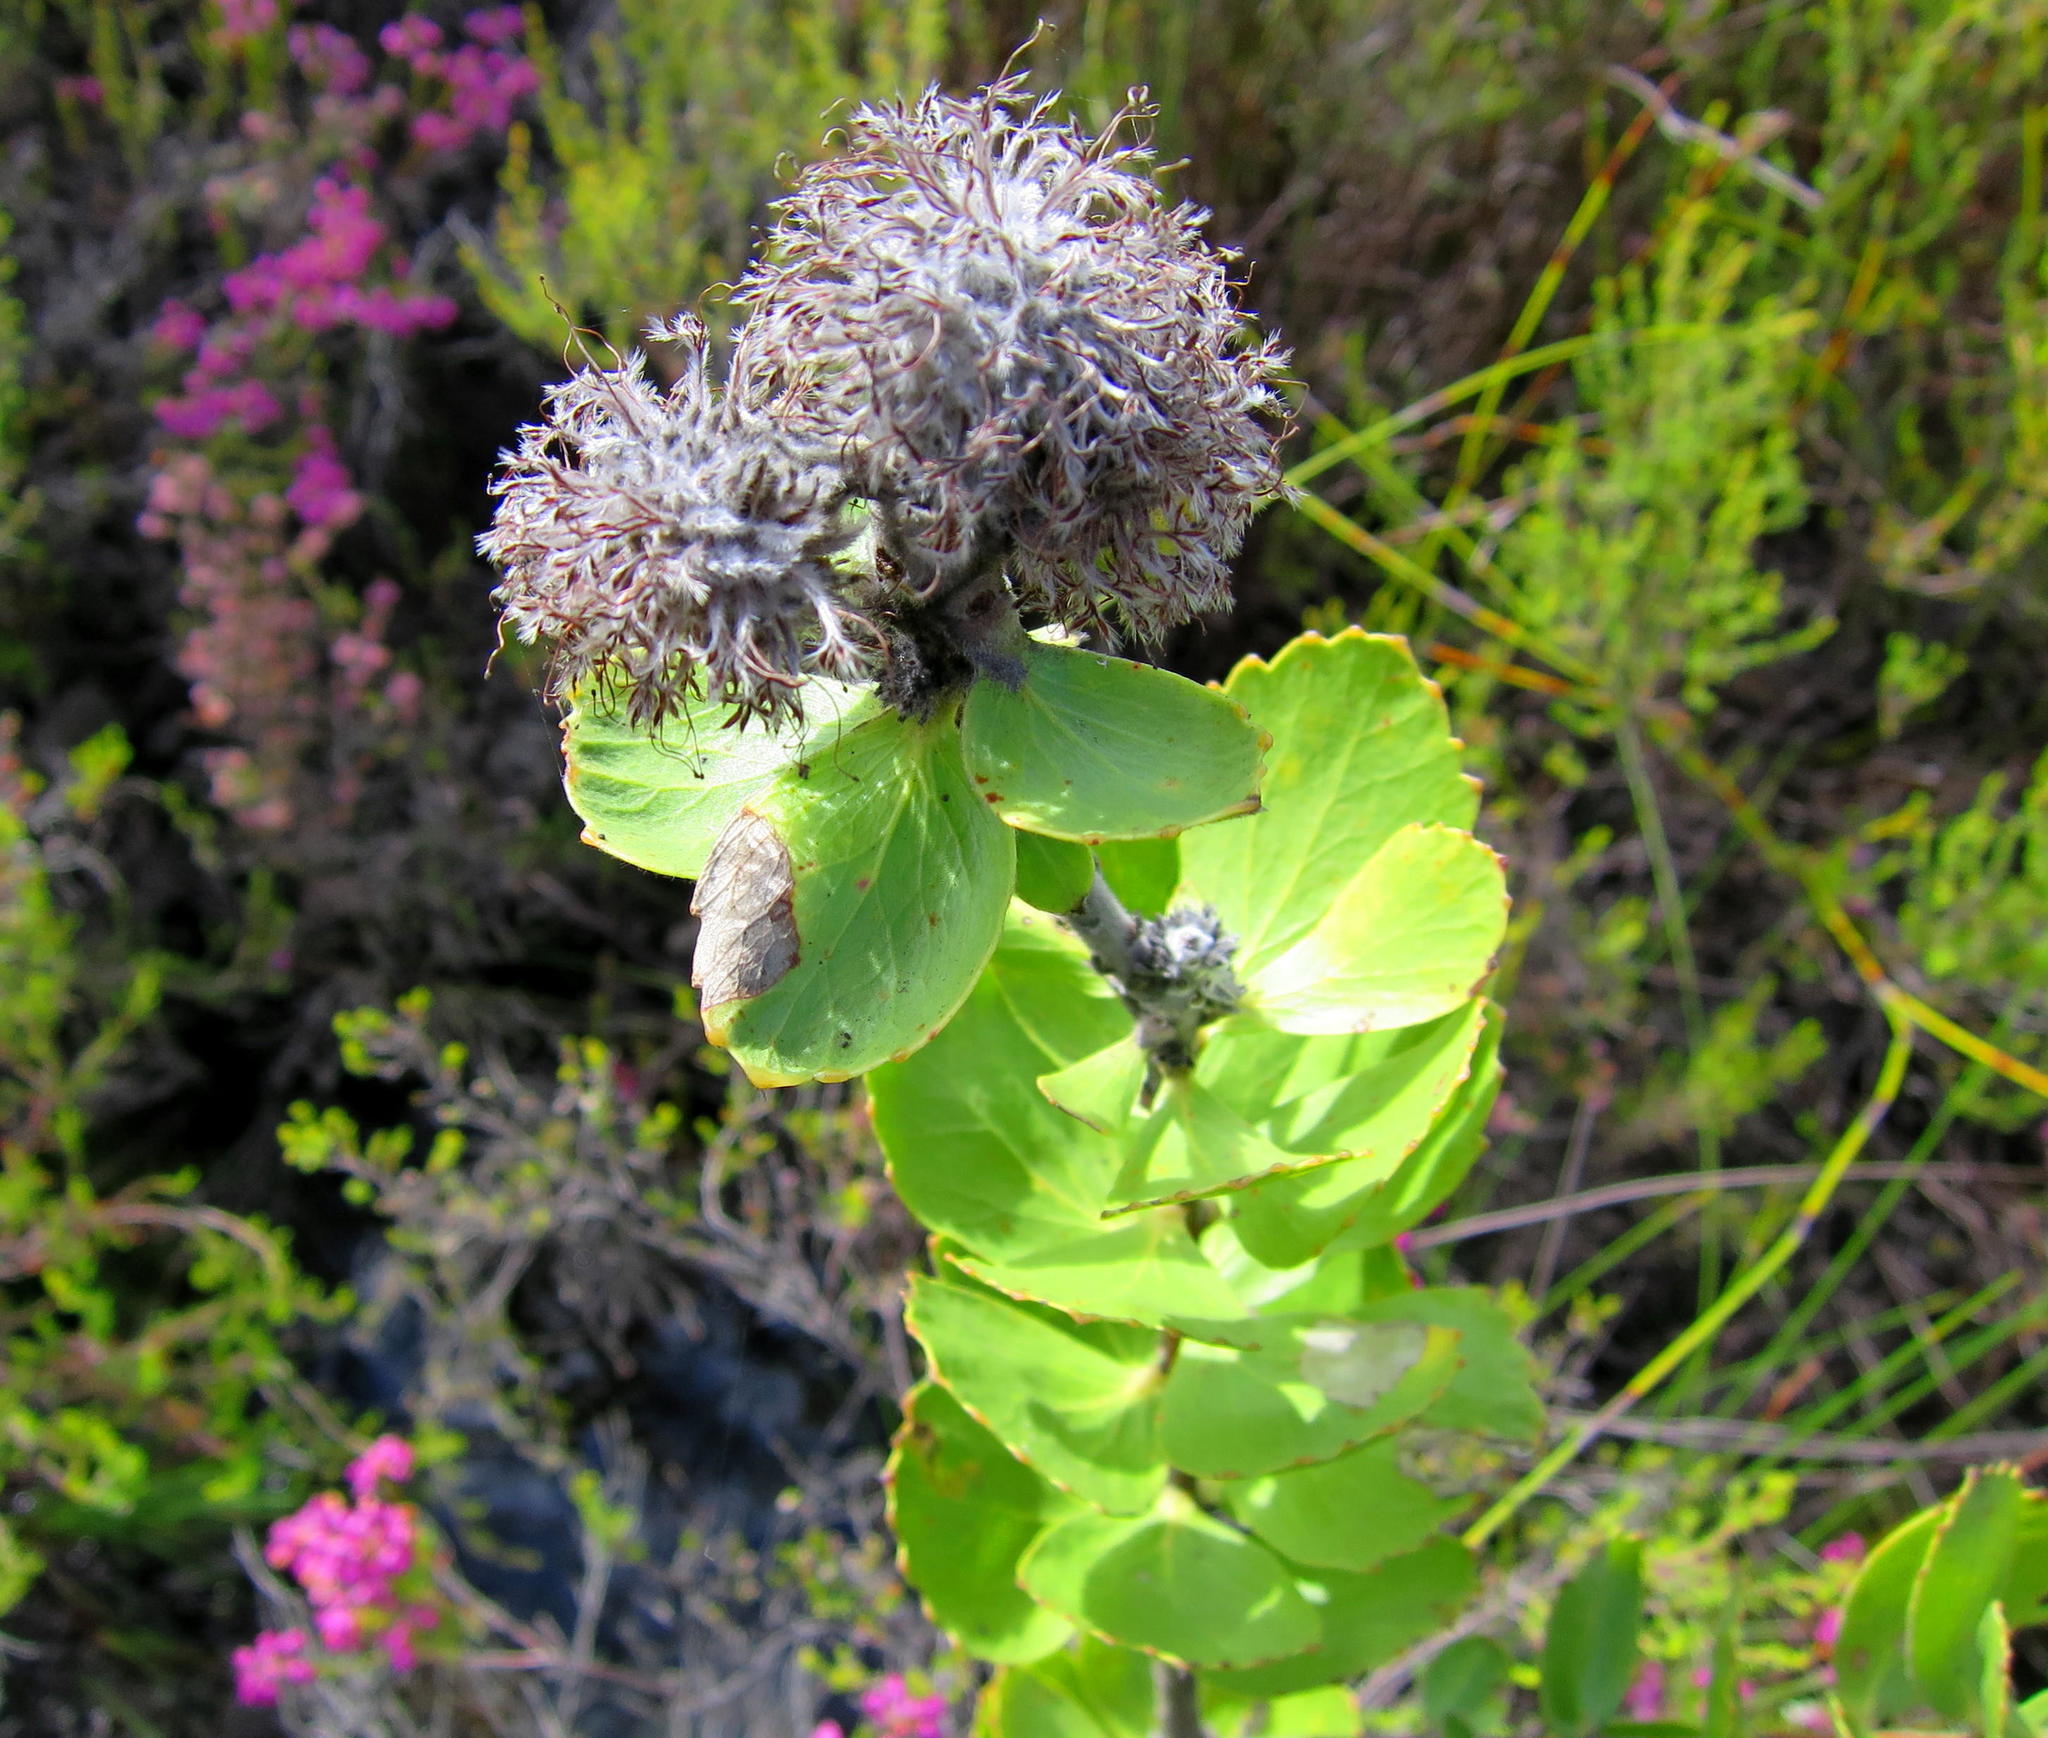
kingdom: Plantae
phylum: Tracheophyta
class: Magnoliopsida
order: Proteales
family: Proteaceae
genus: Leucospermum
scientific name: Leucospermum winteri
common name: Riversdale pincushion
